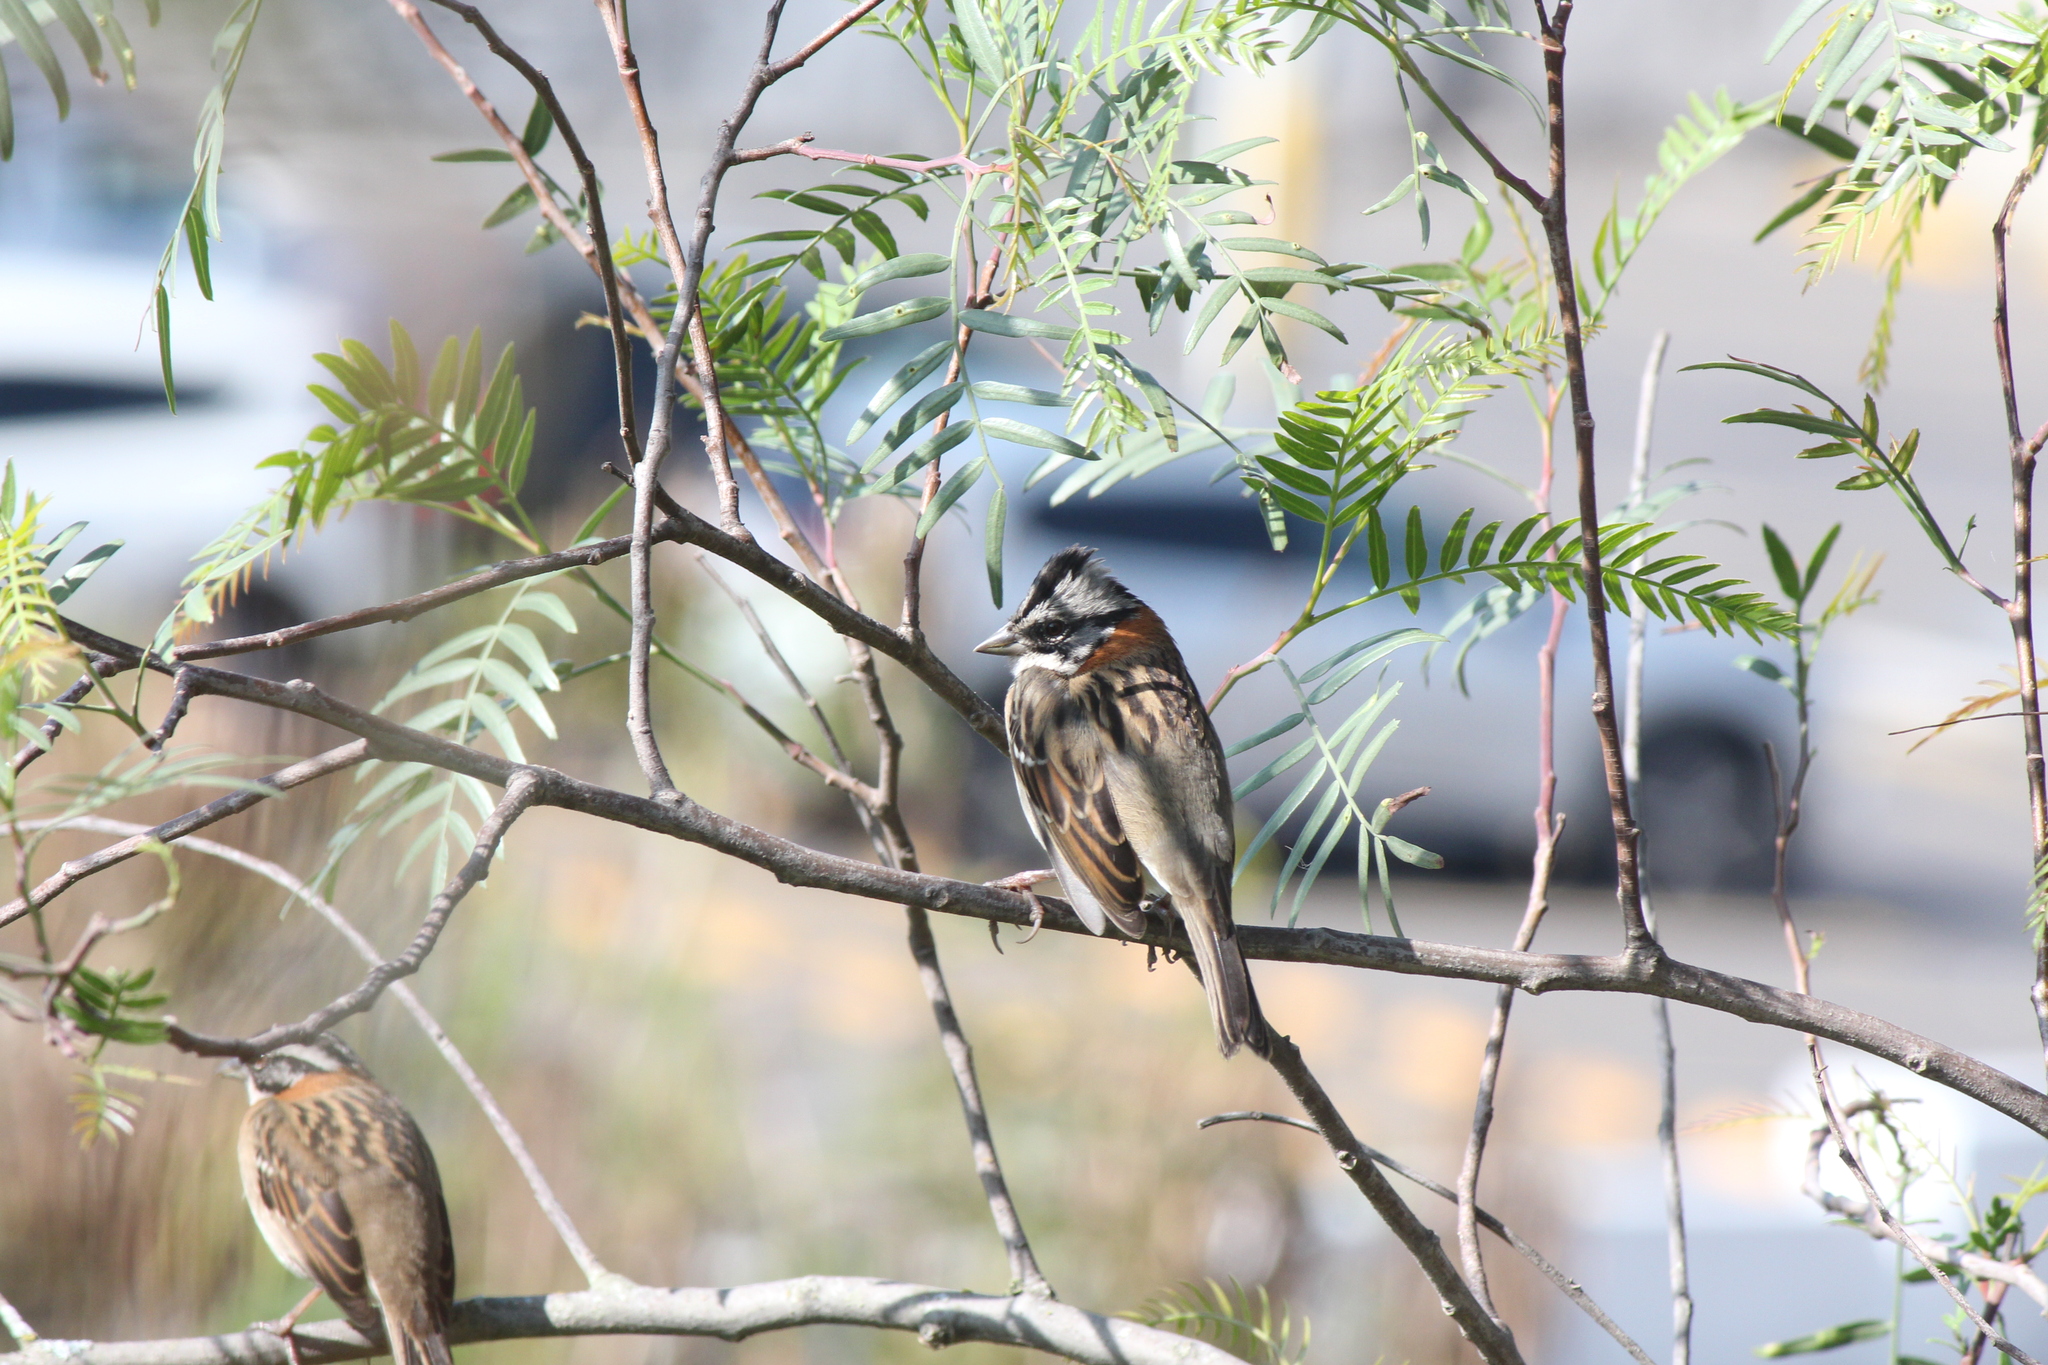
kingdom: Animalia
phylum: Chordata
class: Aves
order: Passeriformes
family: Passerellidae
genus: Zonotrichia
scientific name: Zonotrichia capensis
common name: Rufous-collared sparrow
